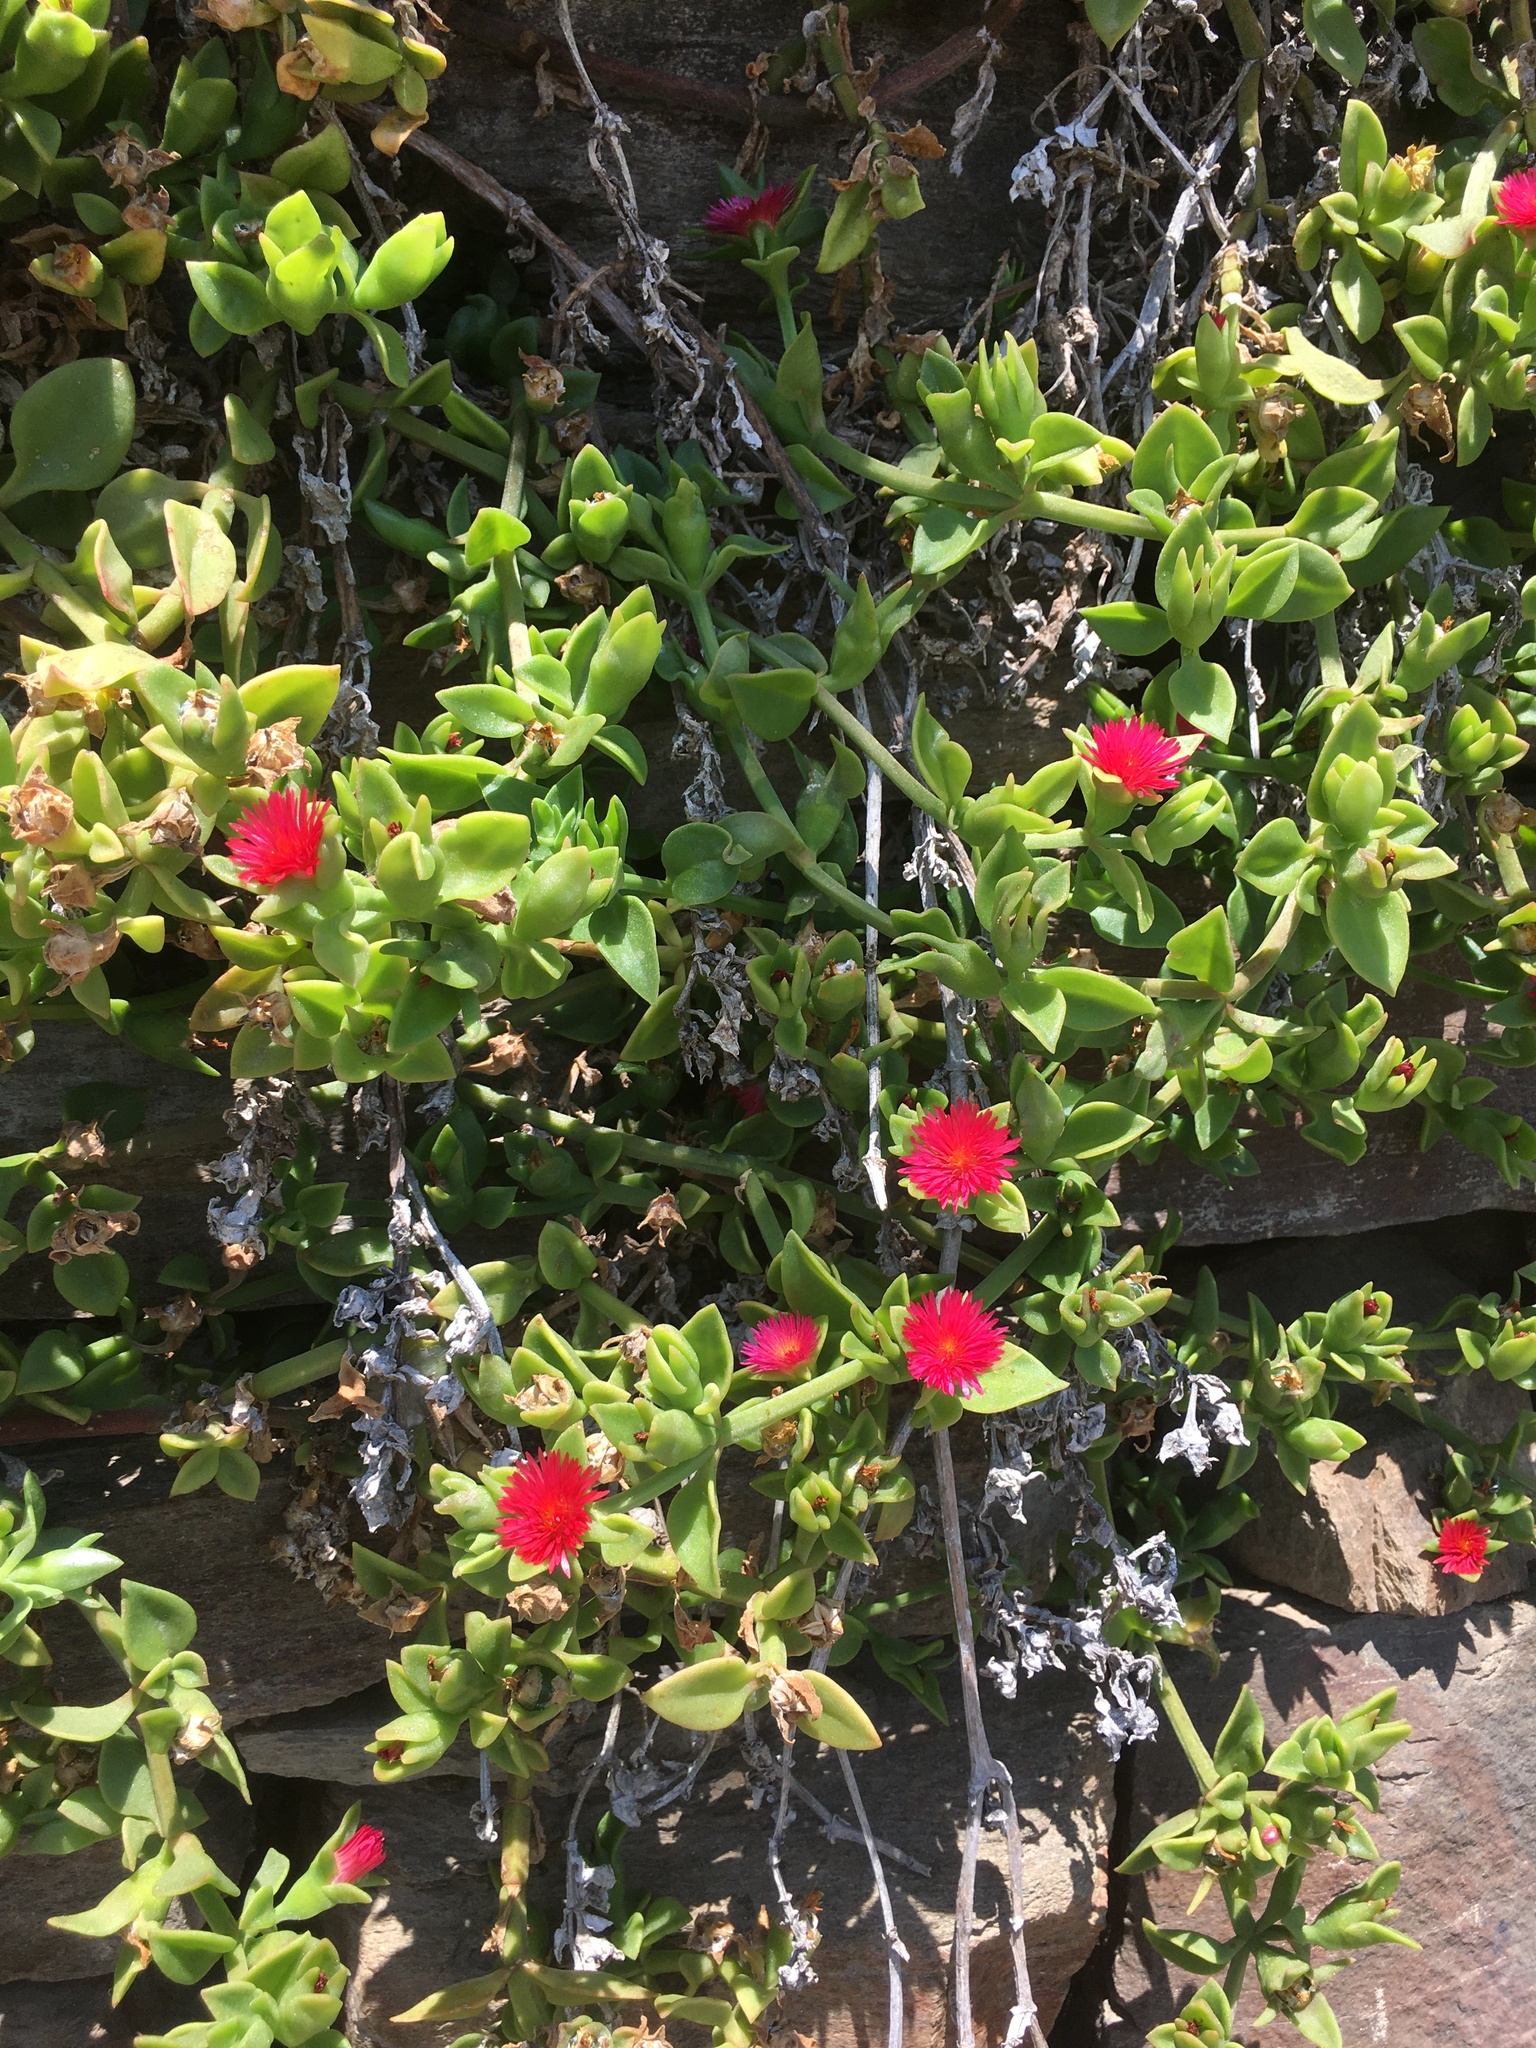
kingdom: Plantae
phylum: Tracheophyta
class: Magnoliopsida
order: Caryophyllales
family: Aizoaceae
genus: Mesembryanthemum
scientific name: Mesembryanthemum cordifolium
